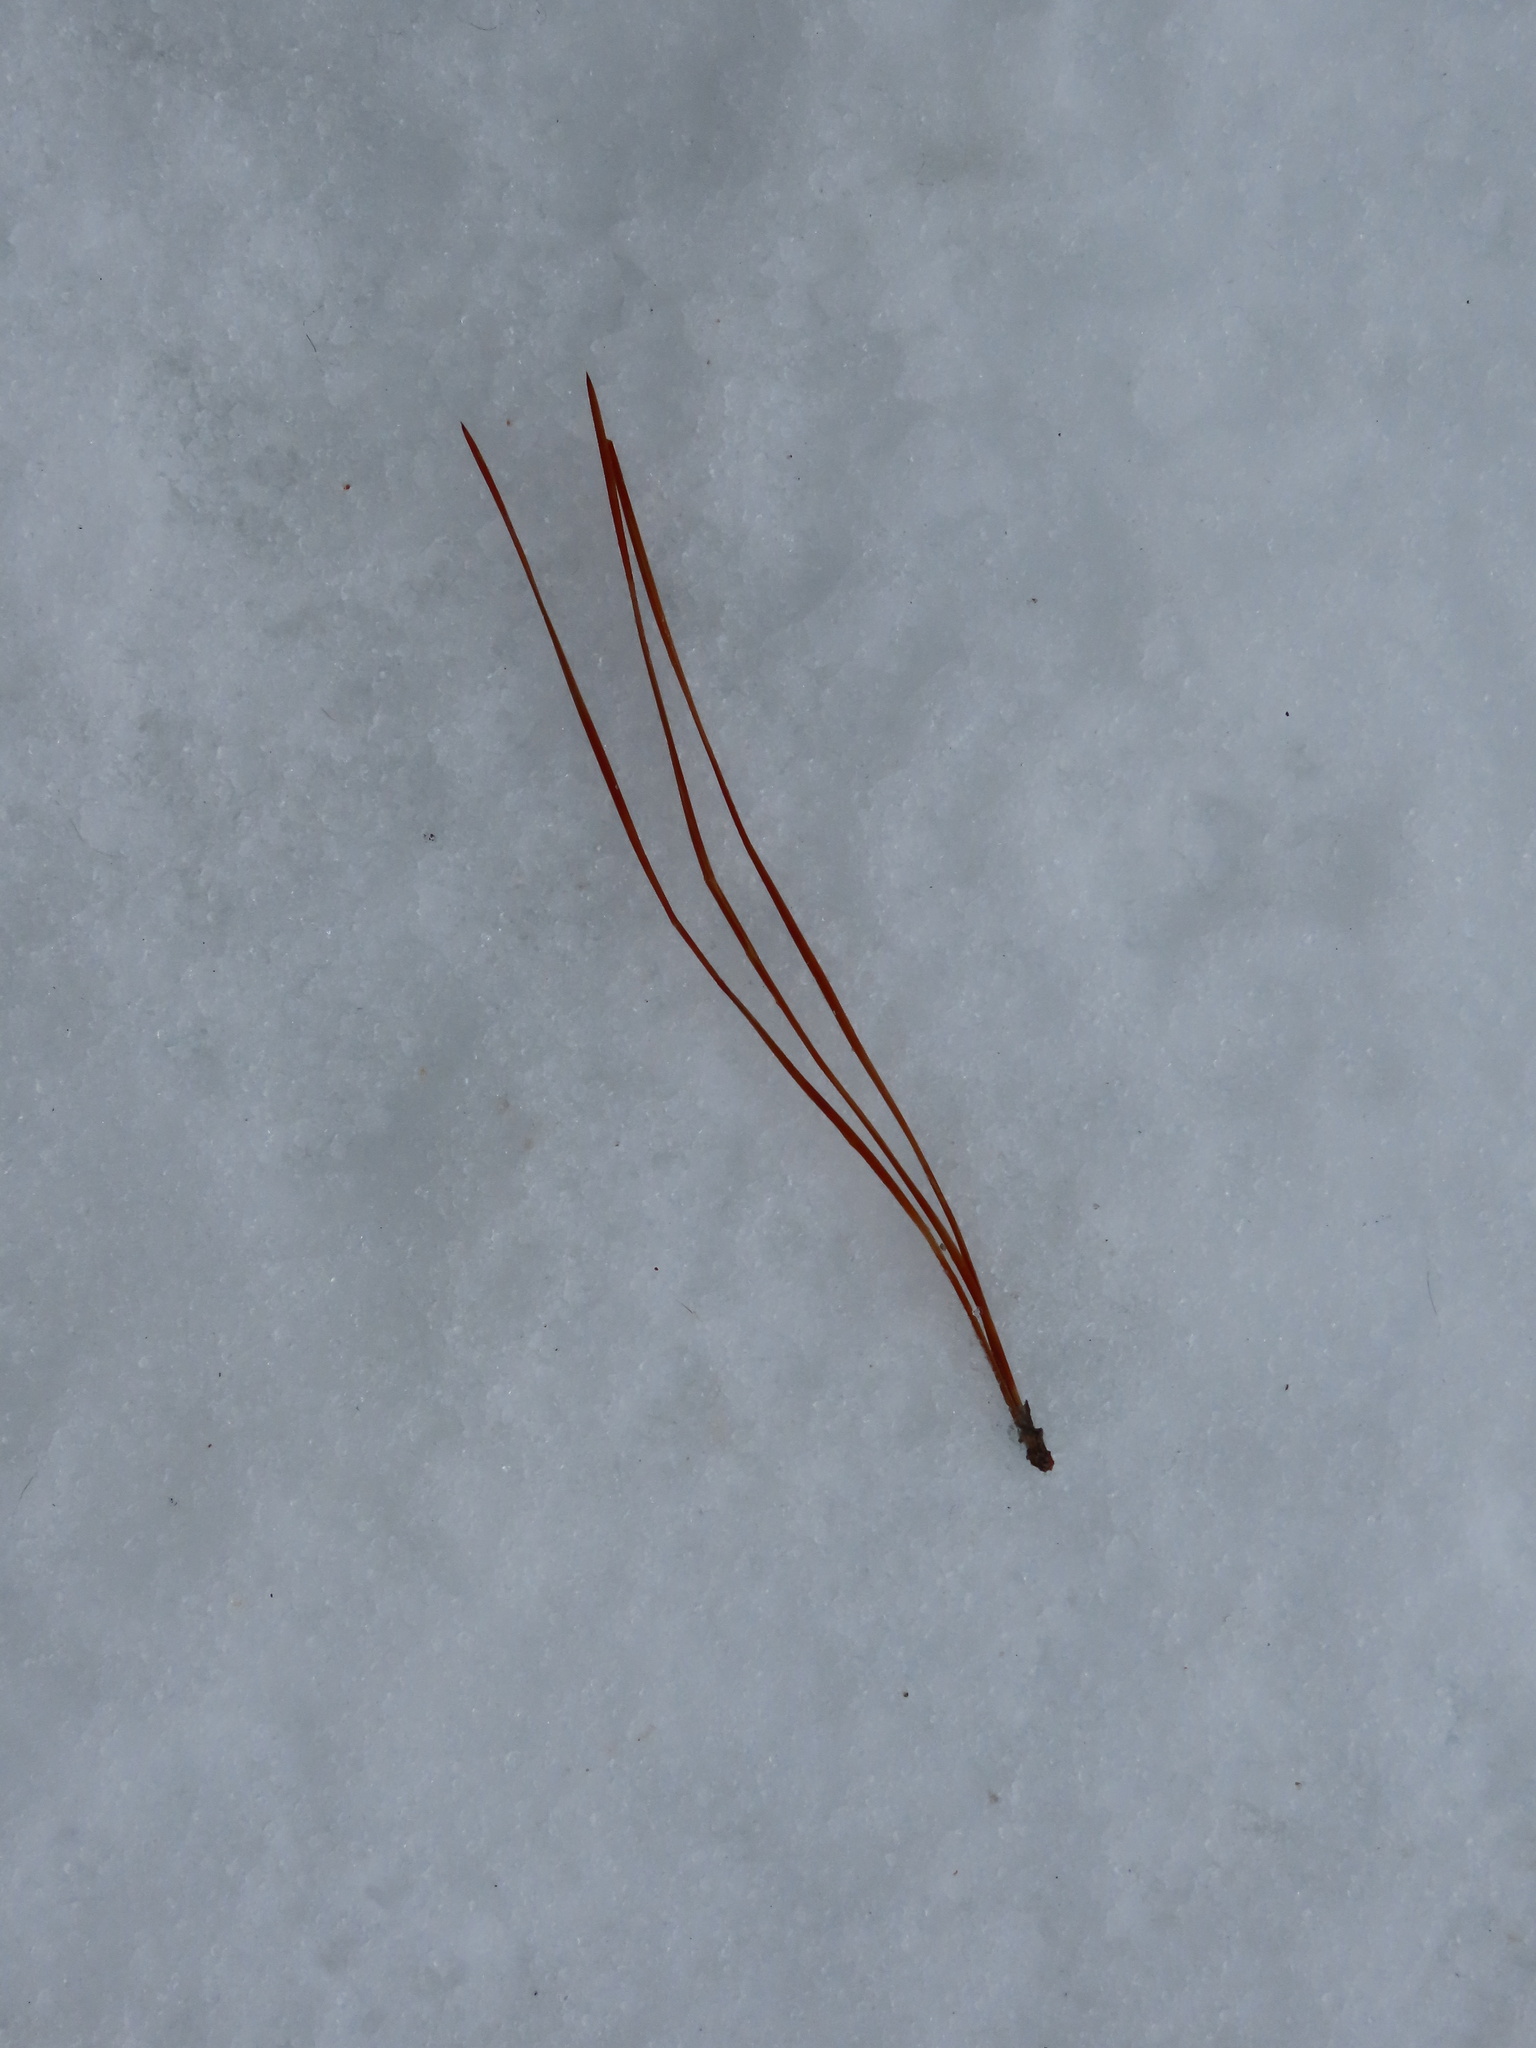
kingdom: Plantae
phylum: Tracheophyta
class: Pinopsida
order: Pinales
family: Pinaceae
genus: Pinus
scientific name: Pinus ponderosa
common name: Western yellow-pine
